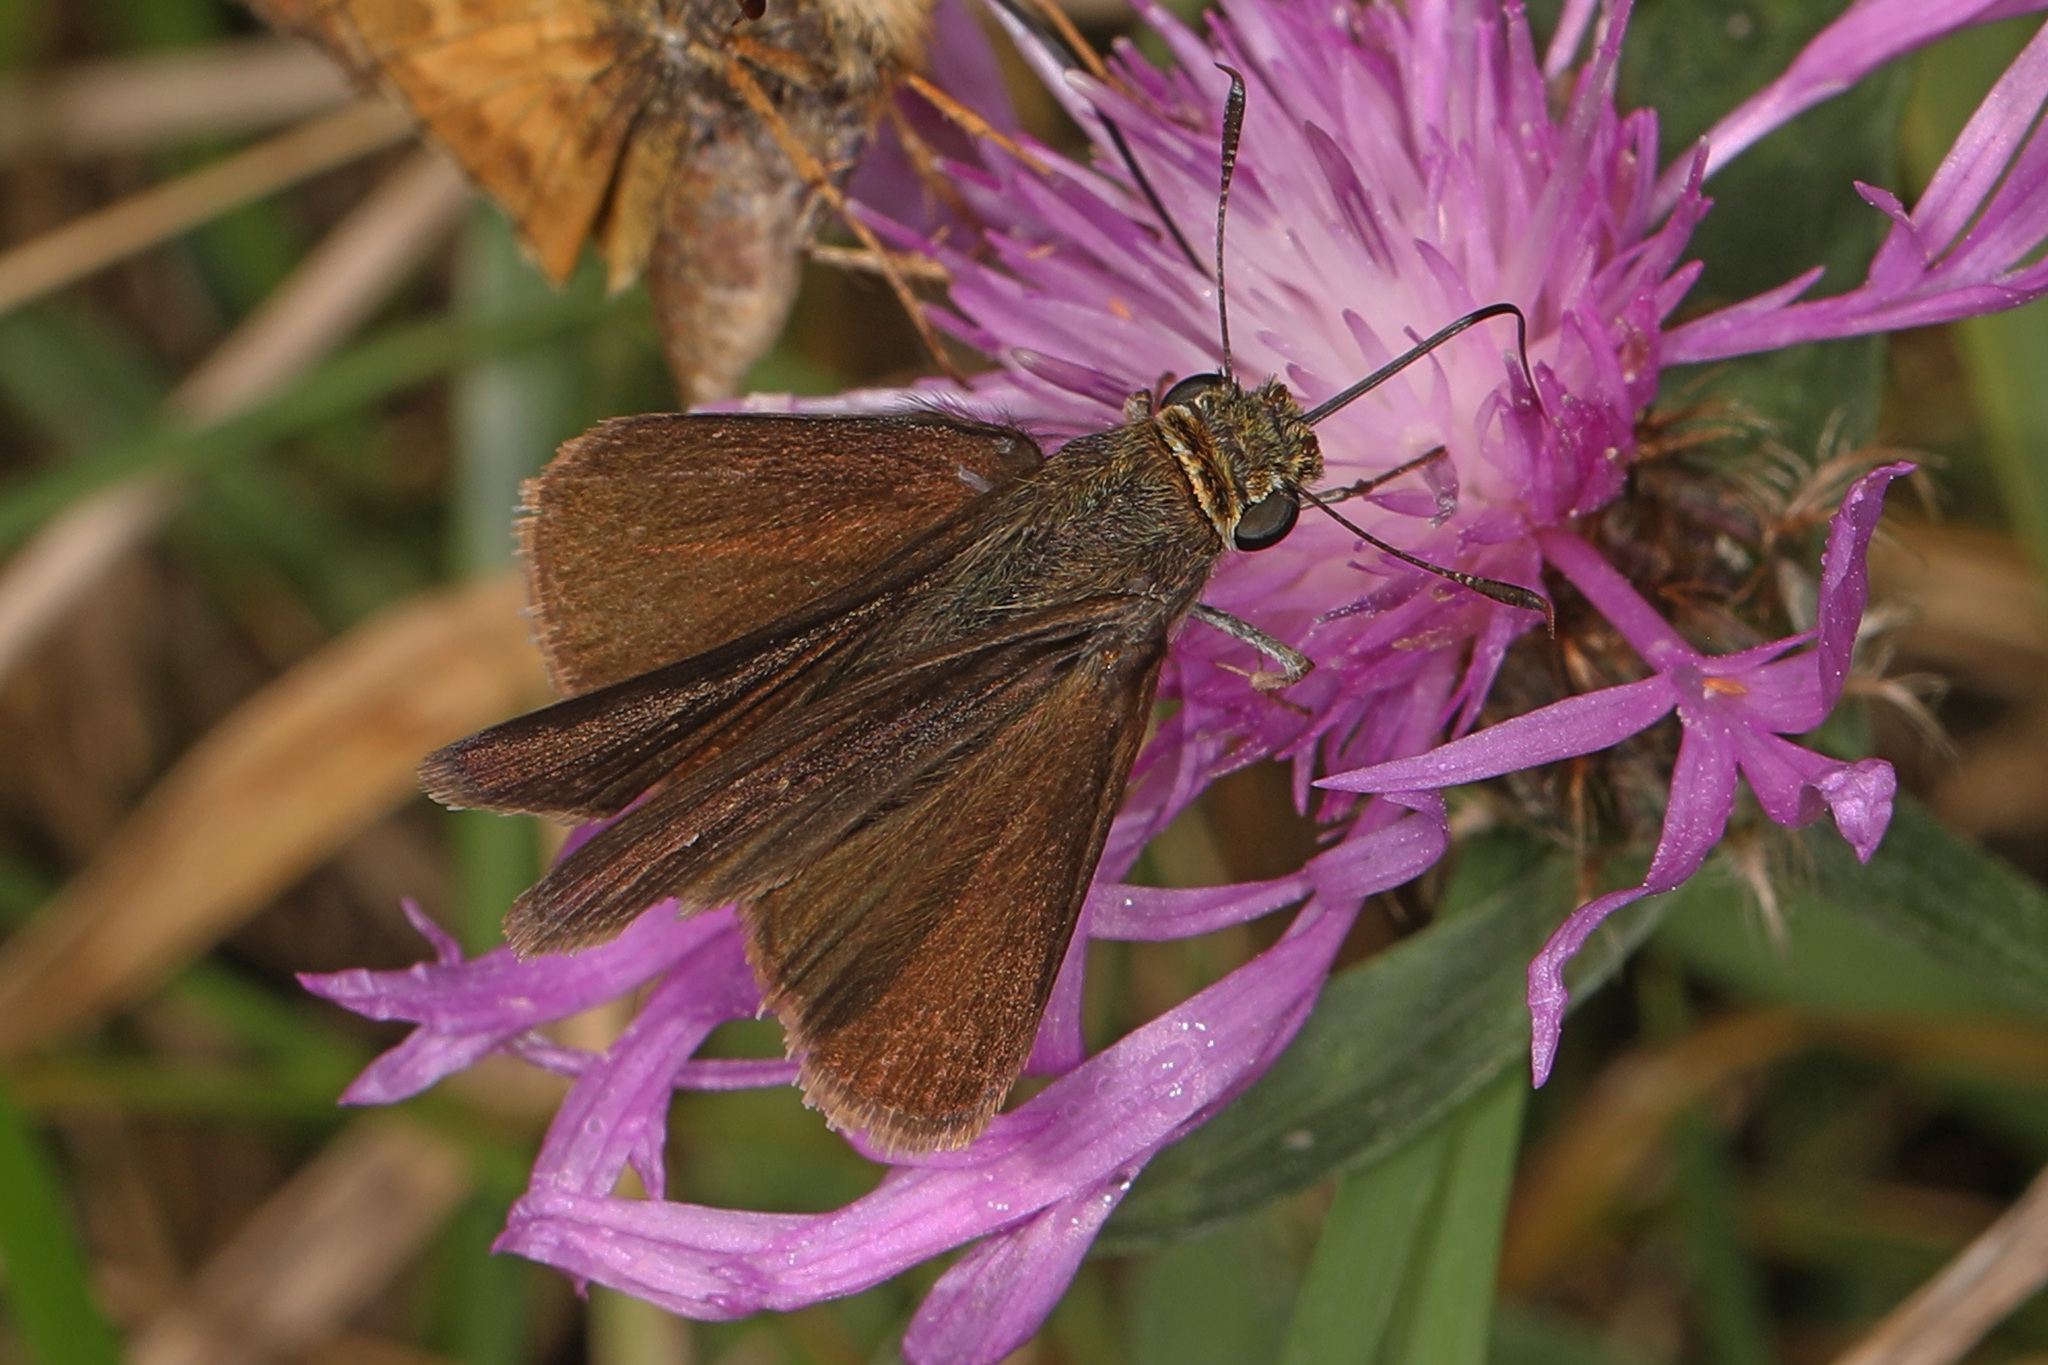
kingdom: Animalia
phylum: Arthropoda
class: Insecta
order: Lepidoptera
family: Hesperiidae
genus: Euphyes
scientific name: Euphyes vestris
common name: Dun skipper
